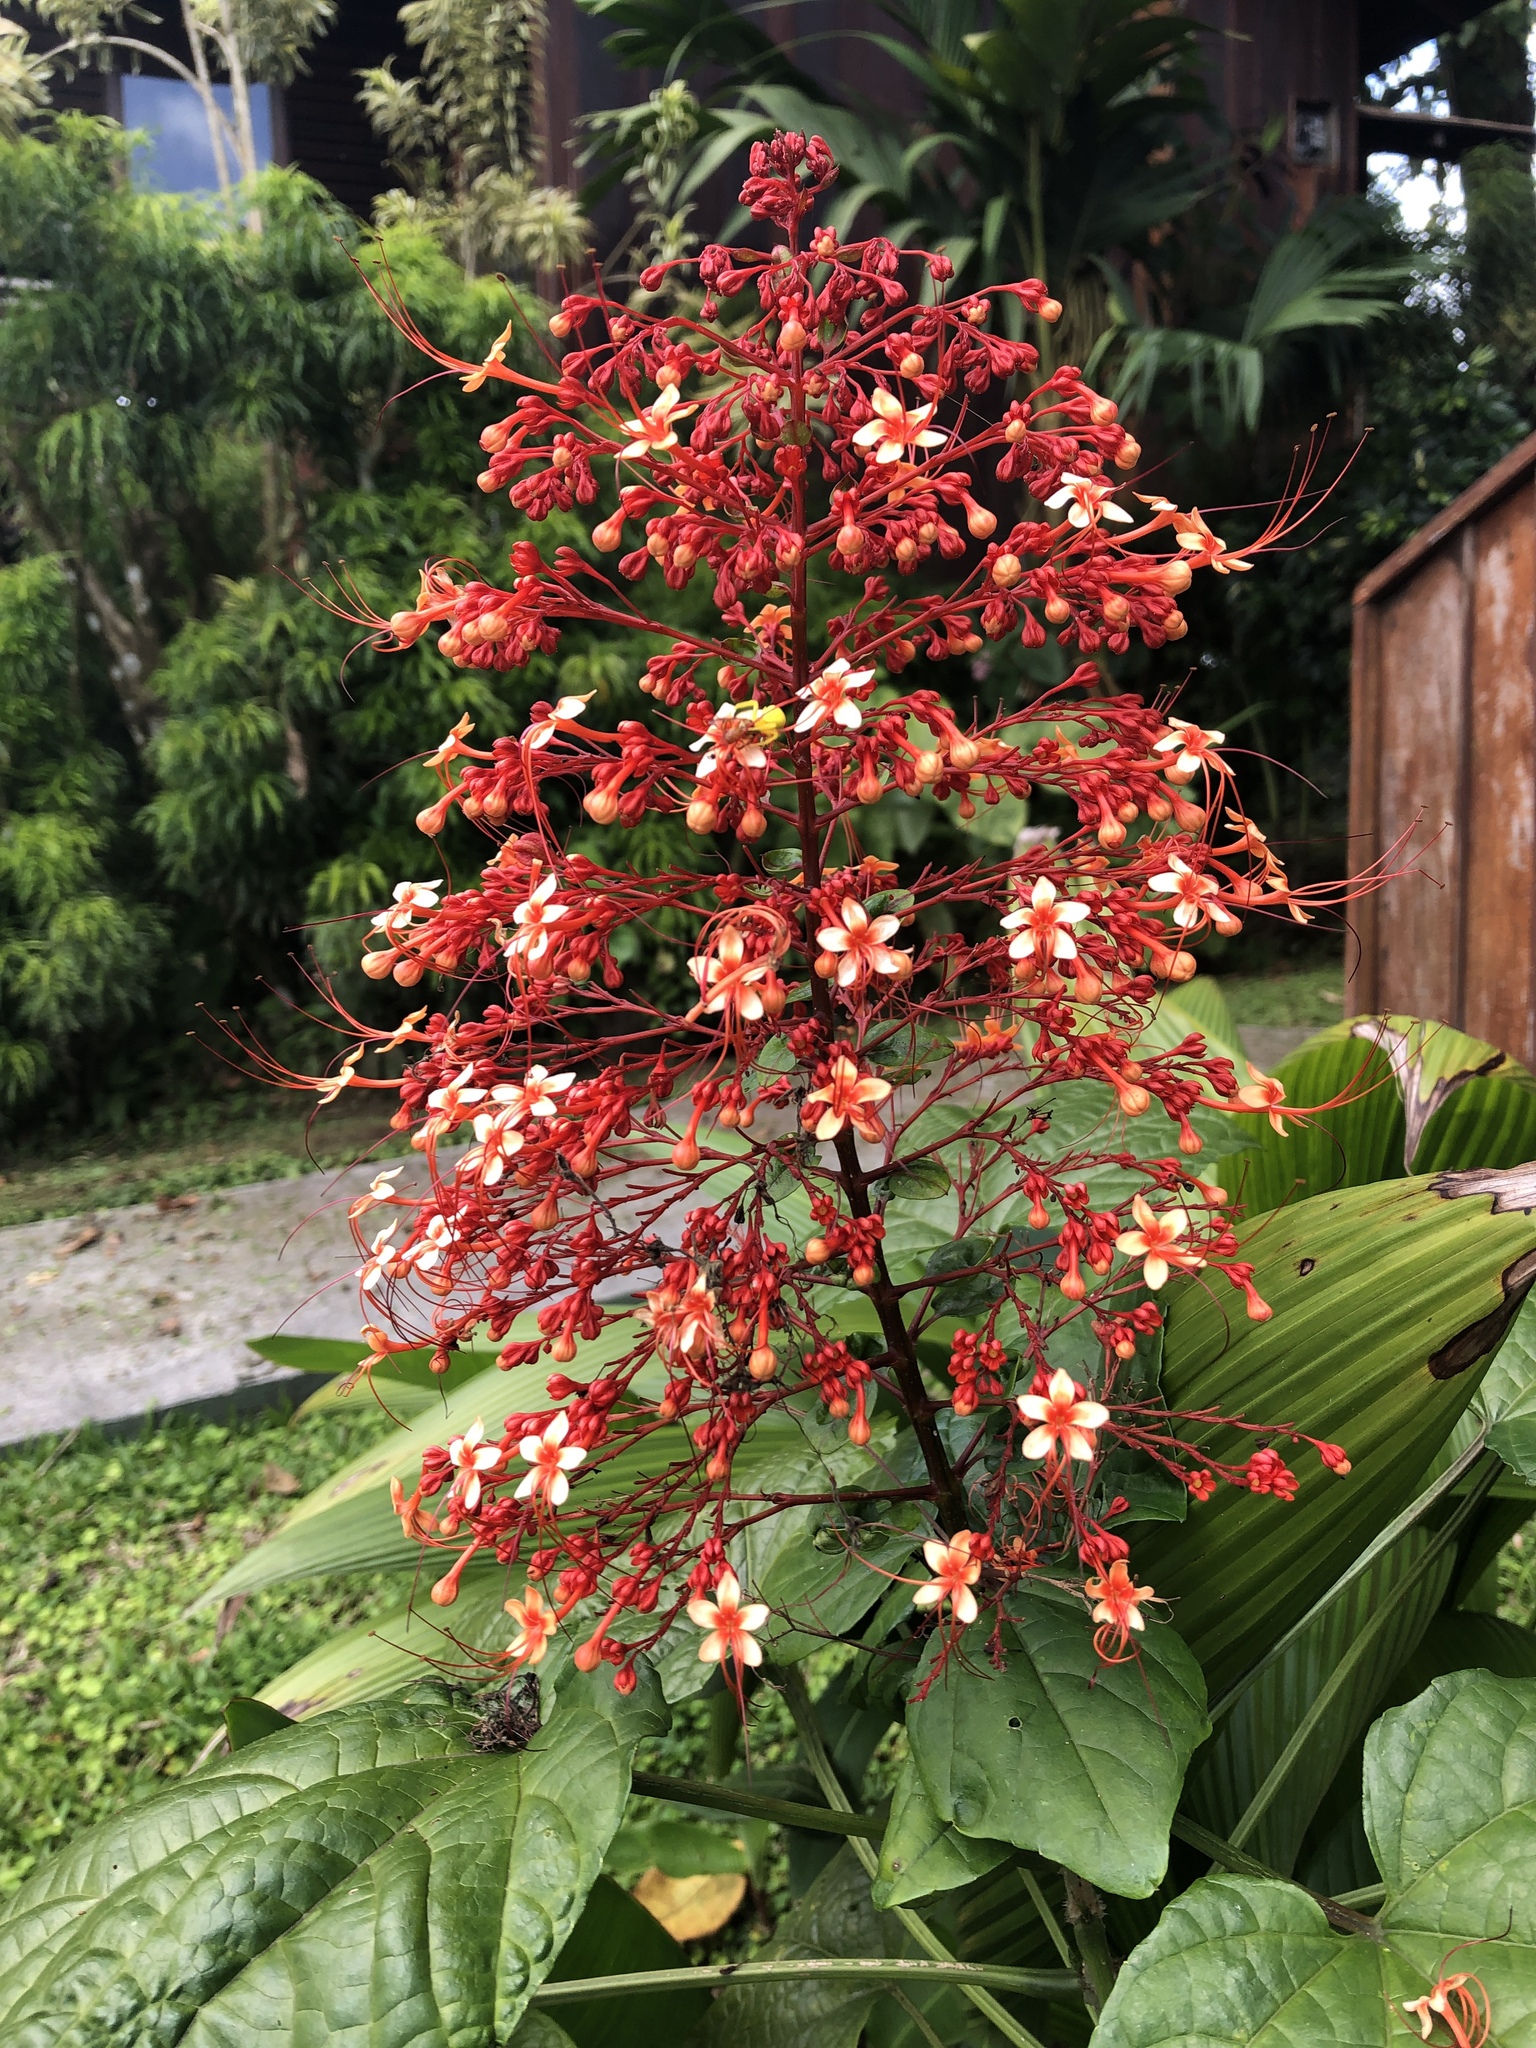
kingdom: Plantae
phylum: Tracheophyta
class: Magnoliopsida
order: Lamiales
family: Lamiaceae
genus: Clerodendrum
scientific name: Clerodendrum paniculatum
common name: Pagoda-flower
